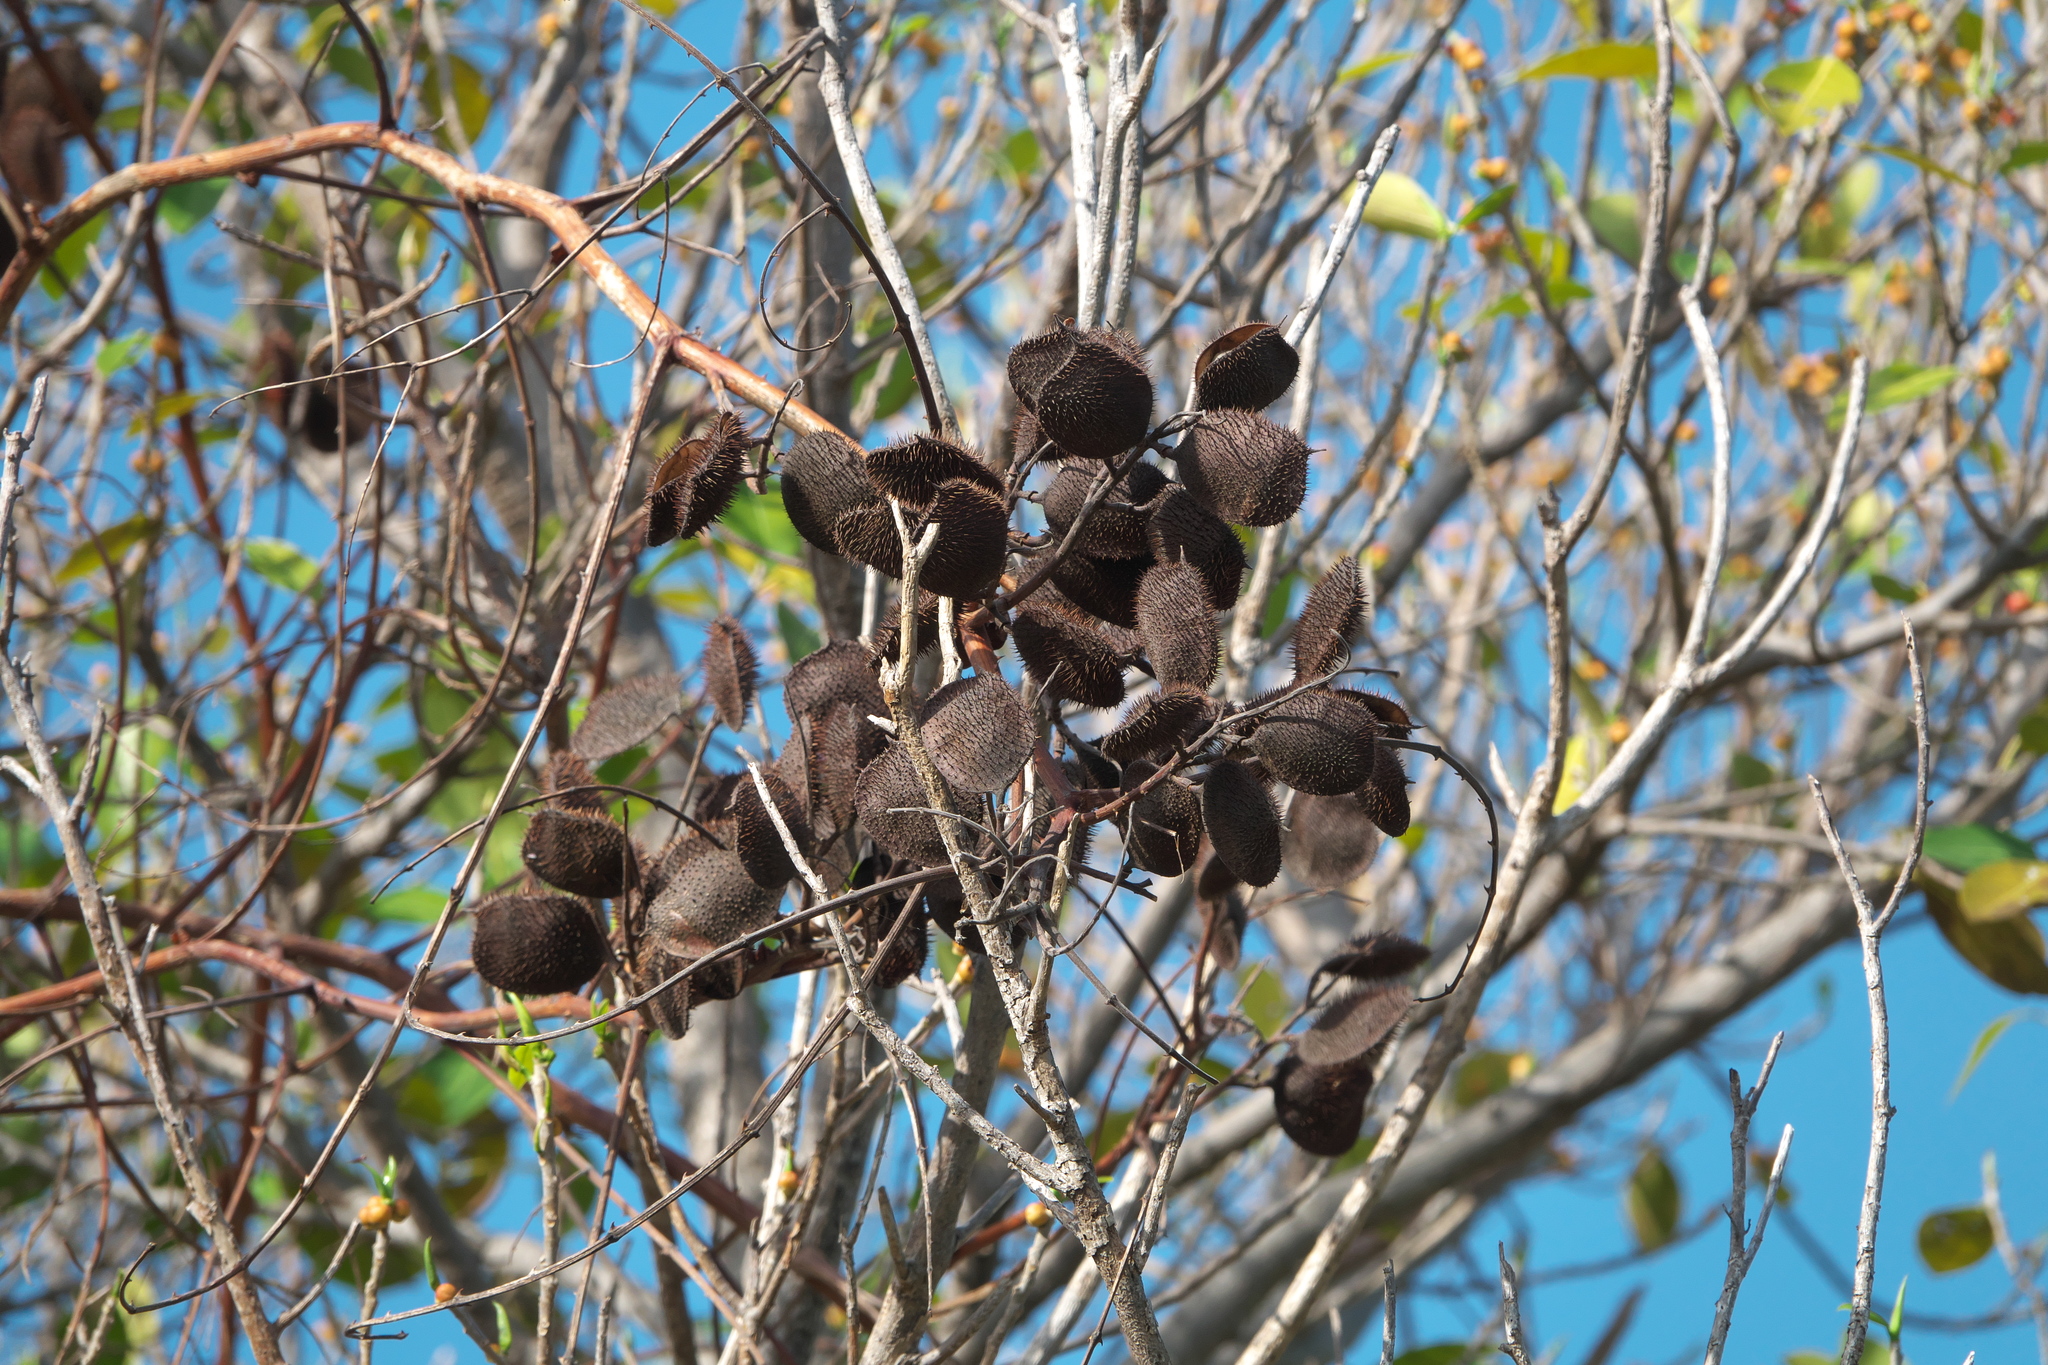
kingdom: Plantae
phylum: Tracheophyta
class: Magnoliopsida
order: Fabales
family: Fabaceae
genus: Guilandina
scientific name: Guilandina bonduc
